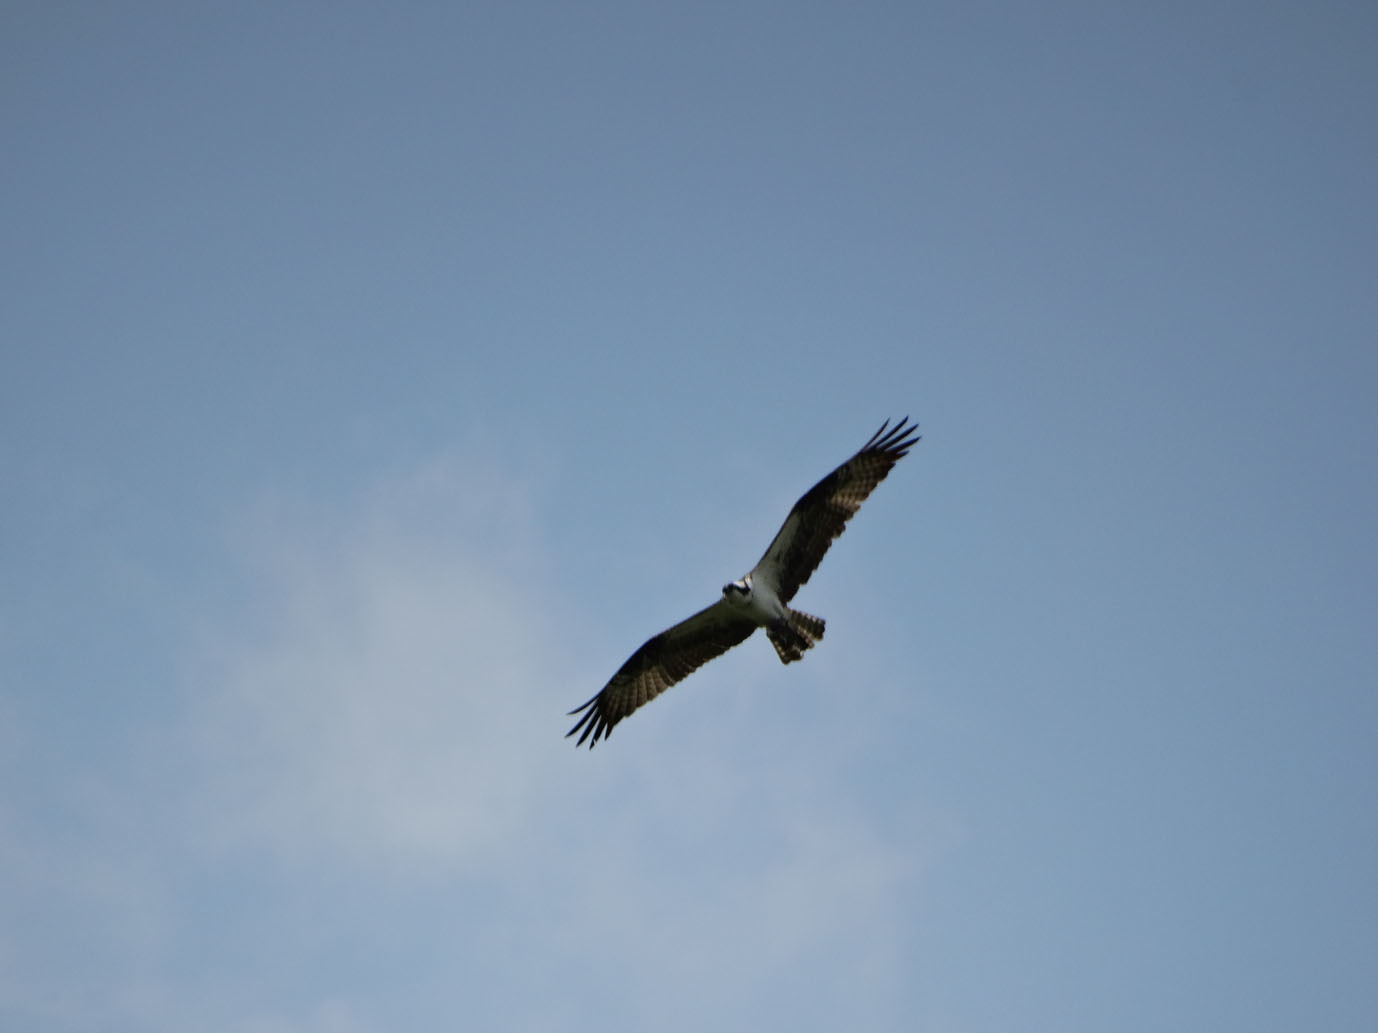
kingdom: Animalia
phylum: Chordata
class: Aves
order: Accipitriformes
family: Pandionidae
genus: Pandion
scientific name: Pandion haliaetus
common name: Osprey
